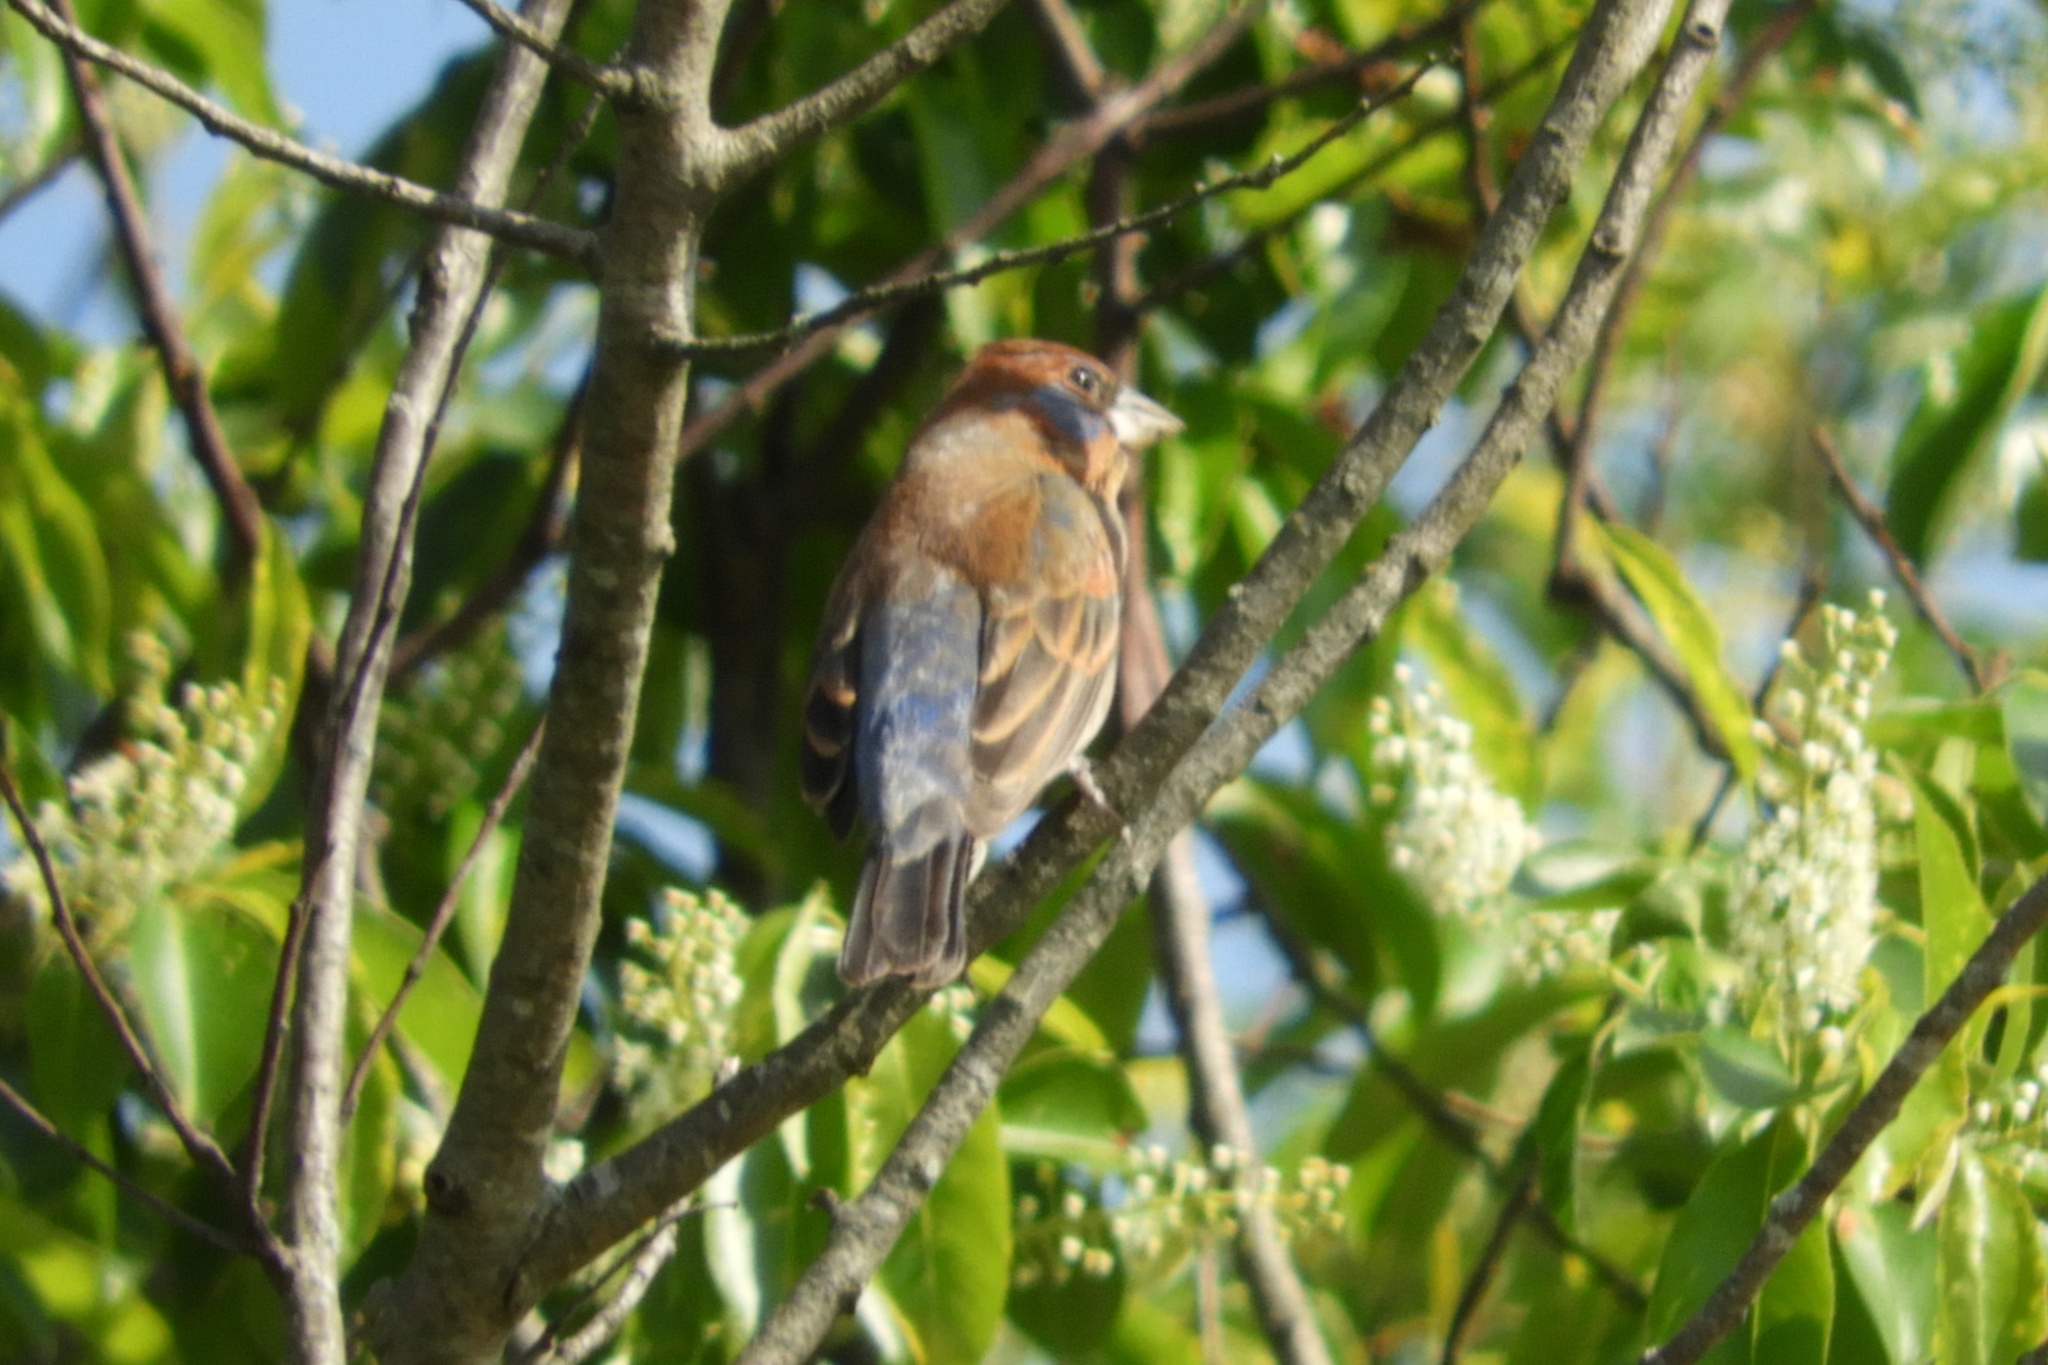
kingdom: Animalia
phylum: Chordata
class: Aves
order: Passeriformes
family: Cardinalidae
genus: Passerina
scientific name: Passerina caerulea
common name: Blue grosbeak
